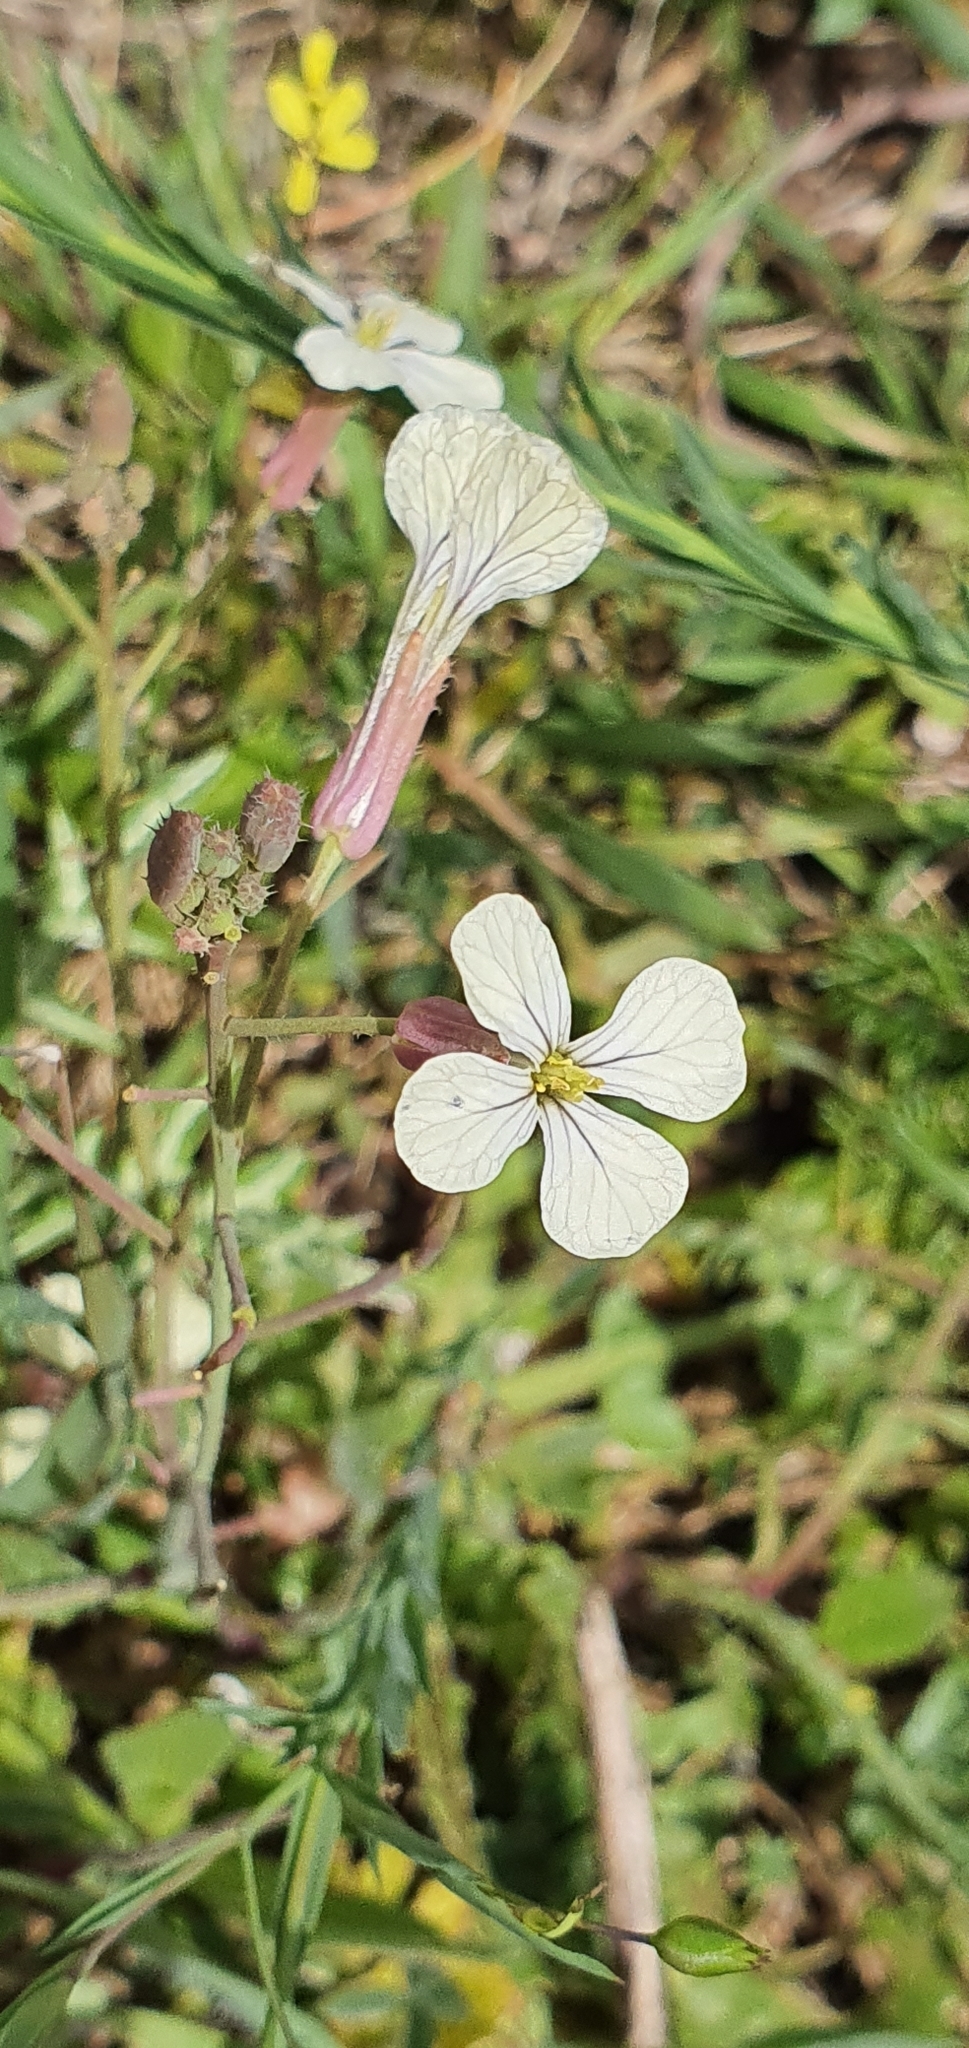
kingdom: Plantae
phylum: Tracheophyta
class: Magnoliopsida
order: Brassicales
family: Brassicaceae
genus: Raphanus
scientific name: Raphanus raphanistrum
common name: Wild radish
